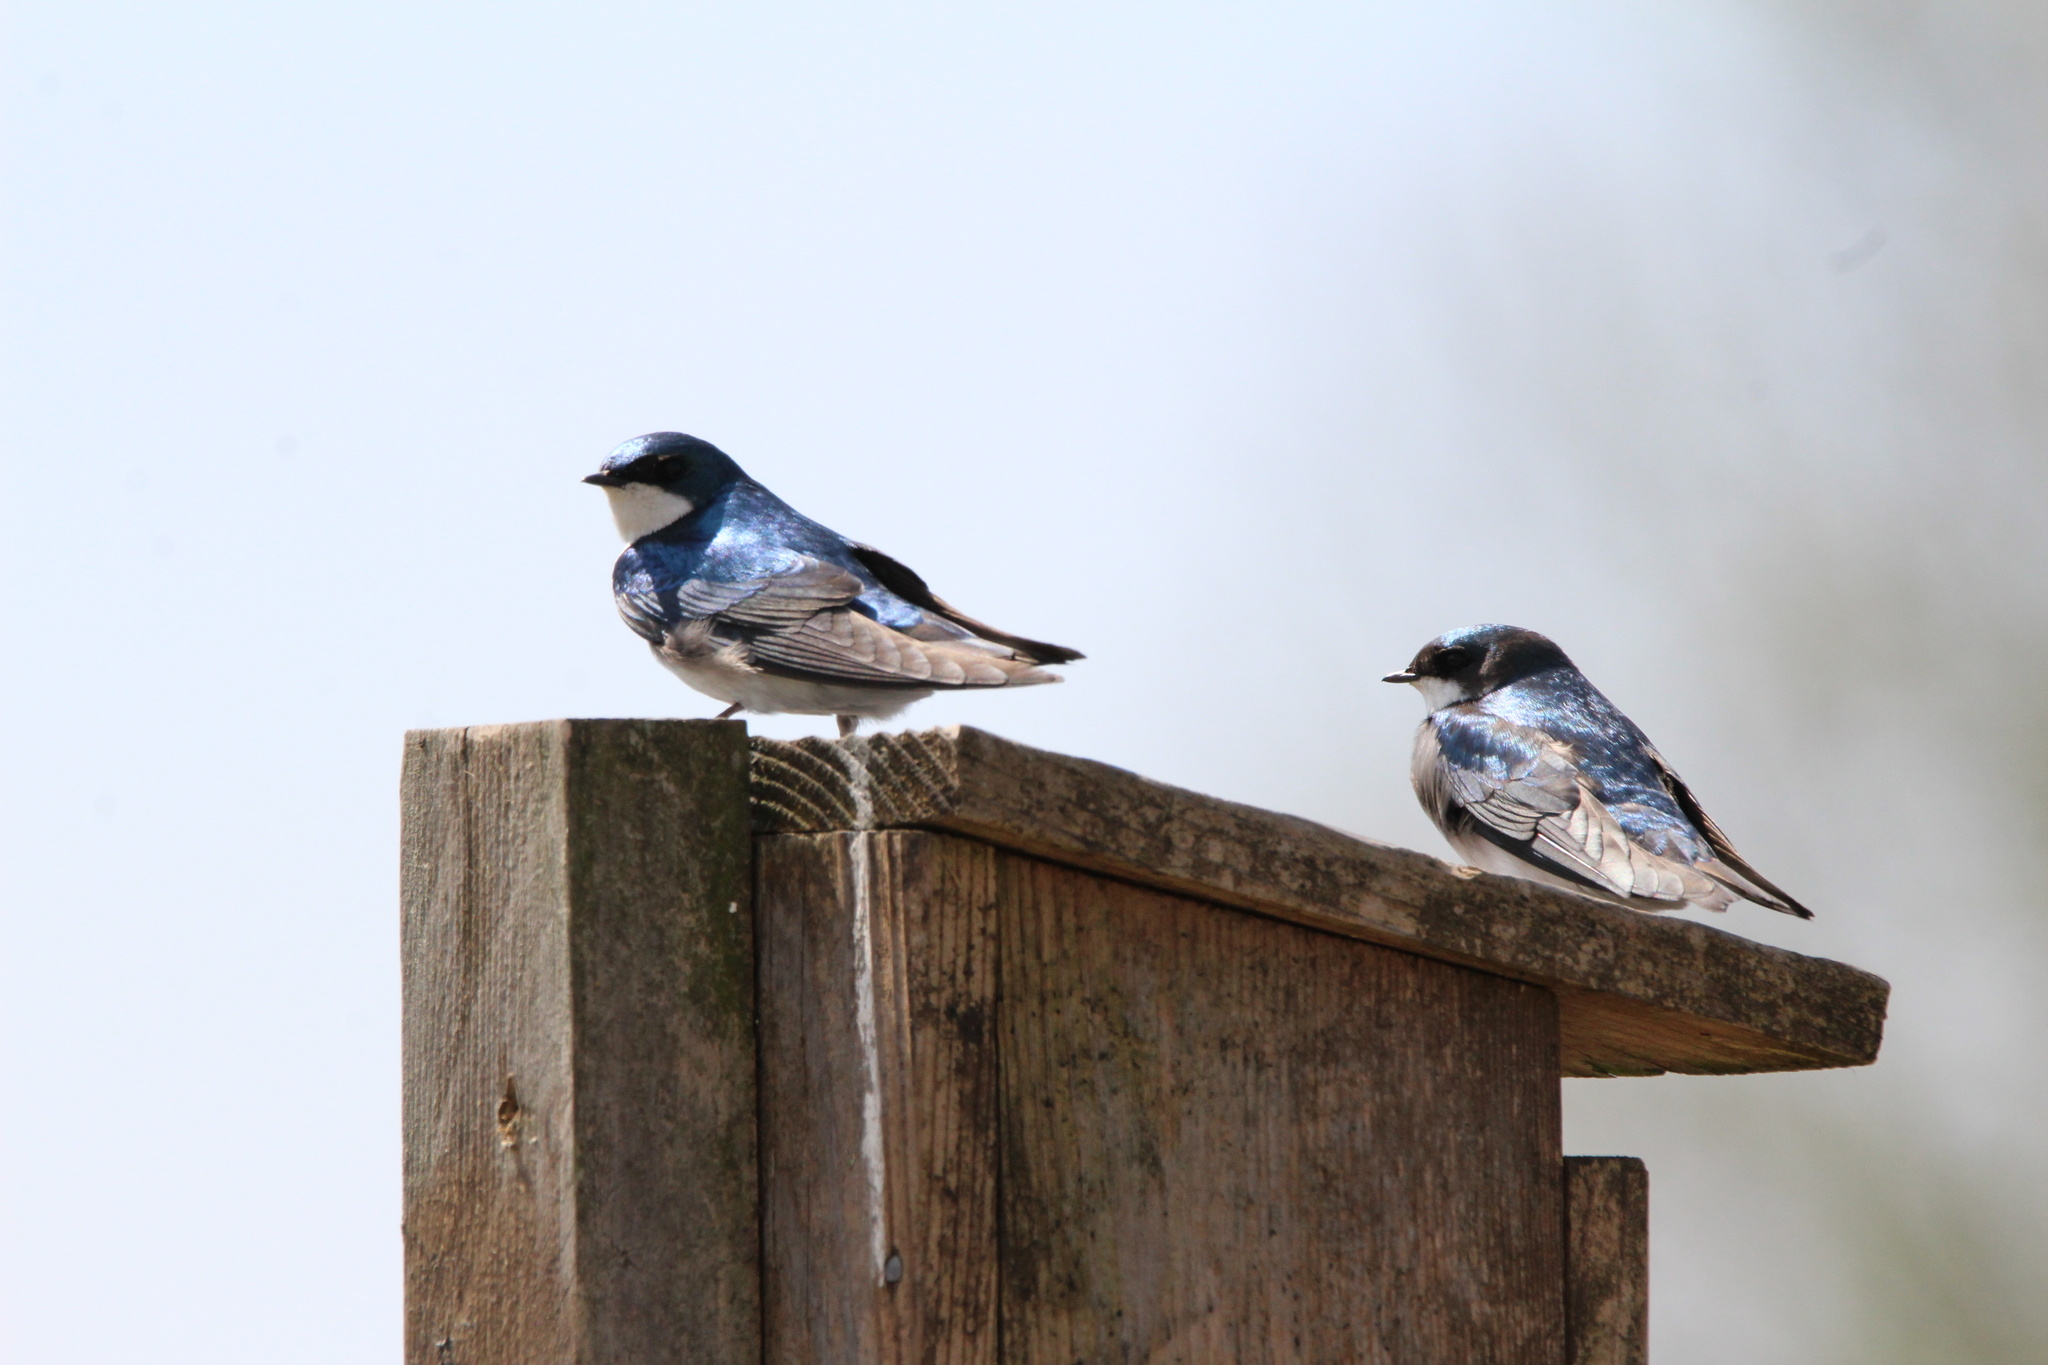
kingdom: Animalia
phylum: Chordata
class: Aves
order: Passeriformes
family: Hirundinidae
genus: Tachycineta
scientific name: Tachycineta bicolor
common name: Tree swallow
